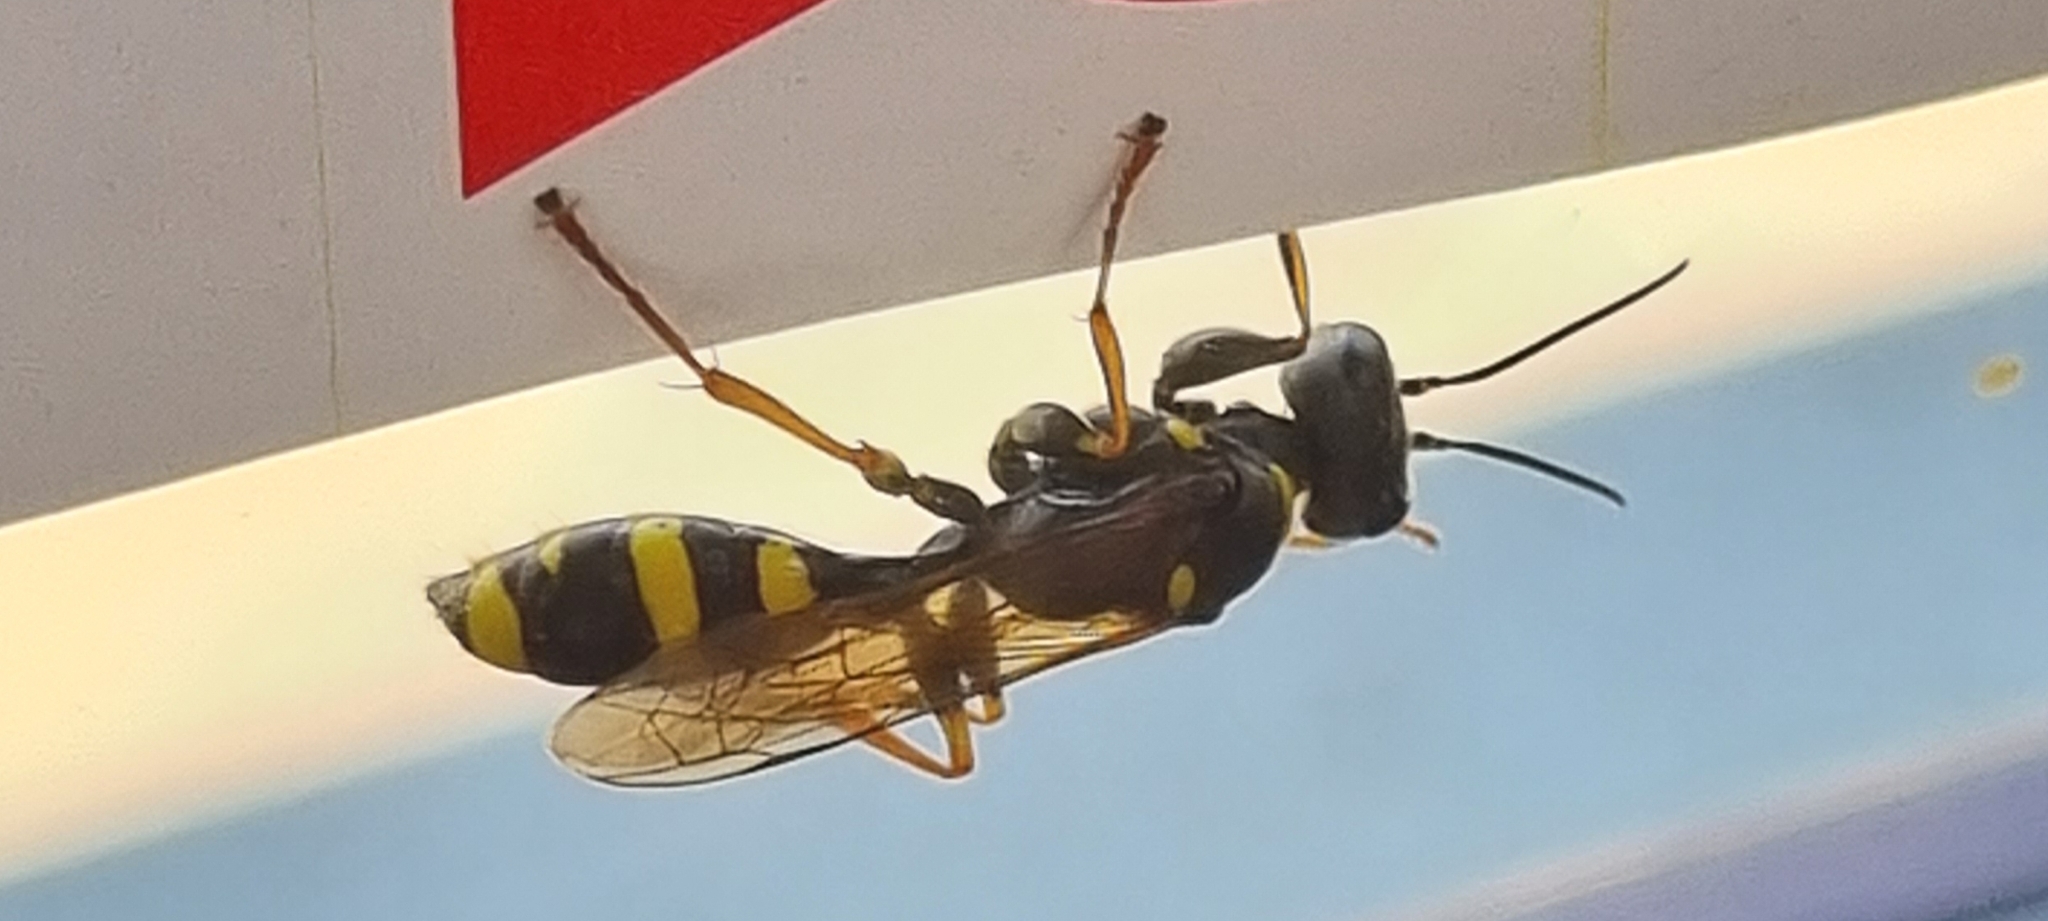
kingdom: Animalia
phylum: Arthropoda
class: Insecta
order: Hymenoptera
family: Crabronidae
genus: Mellinus
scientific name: Mellinus arvensis
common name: Field digger wasp
